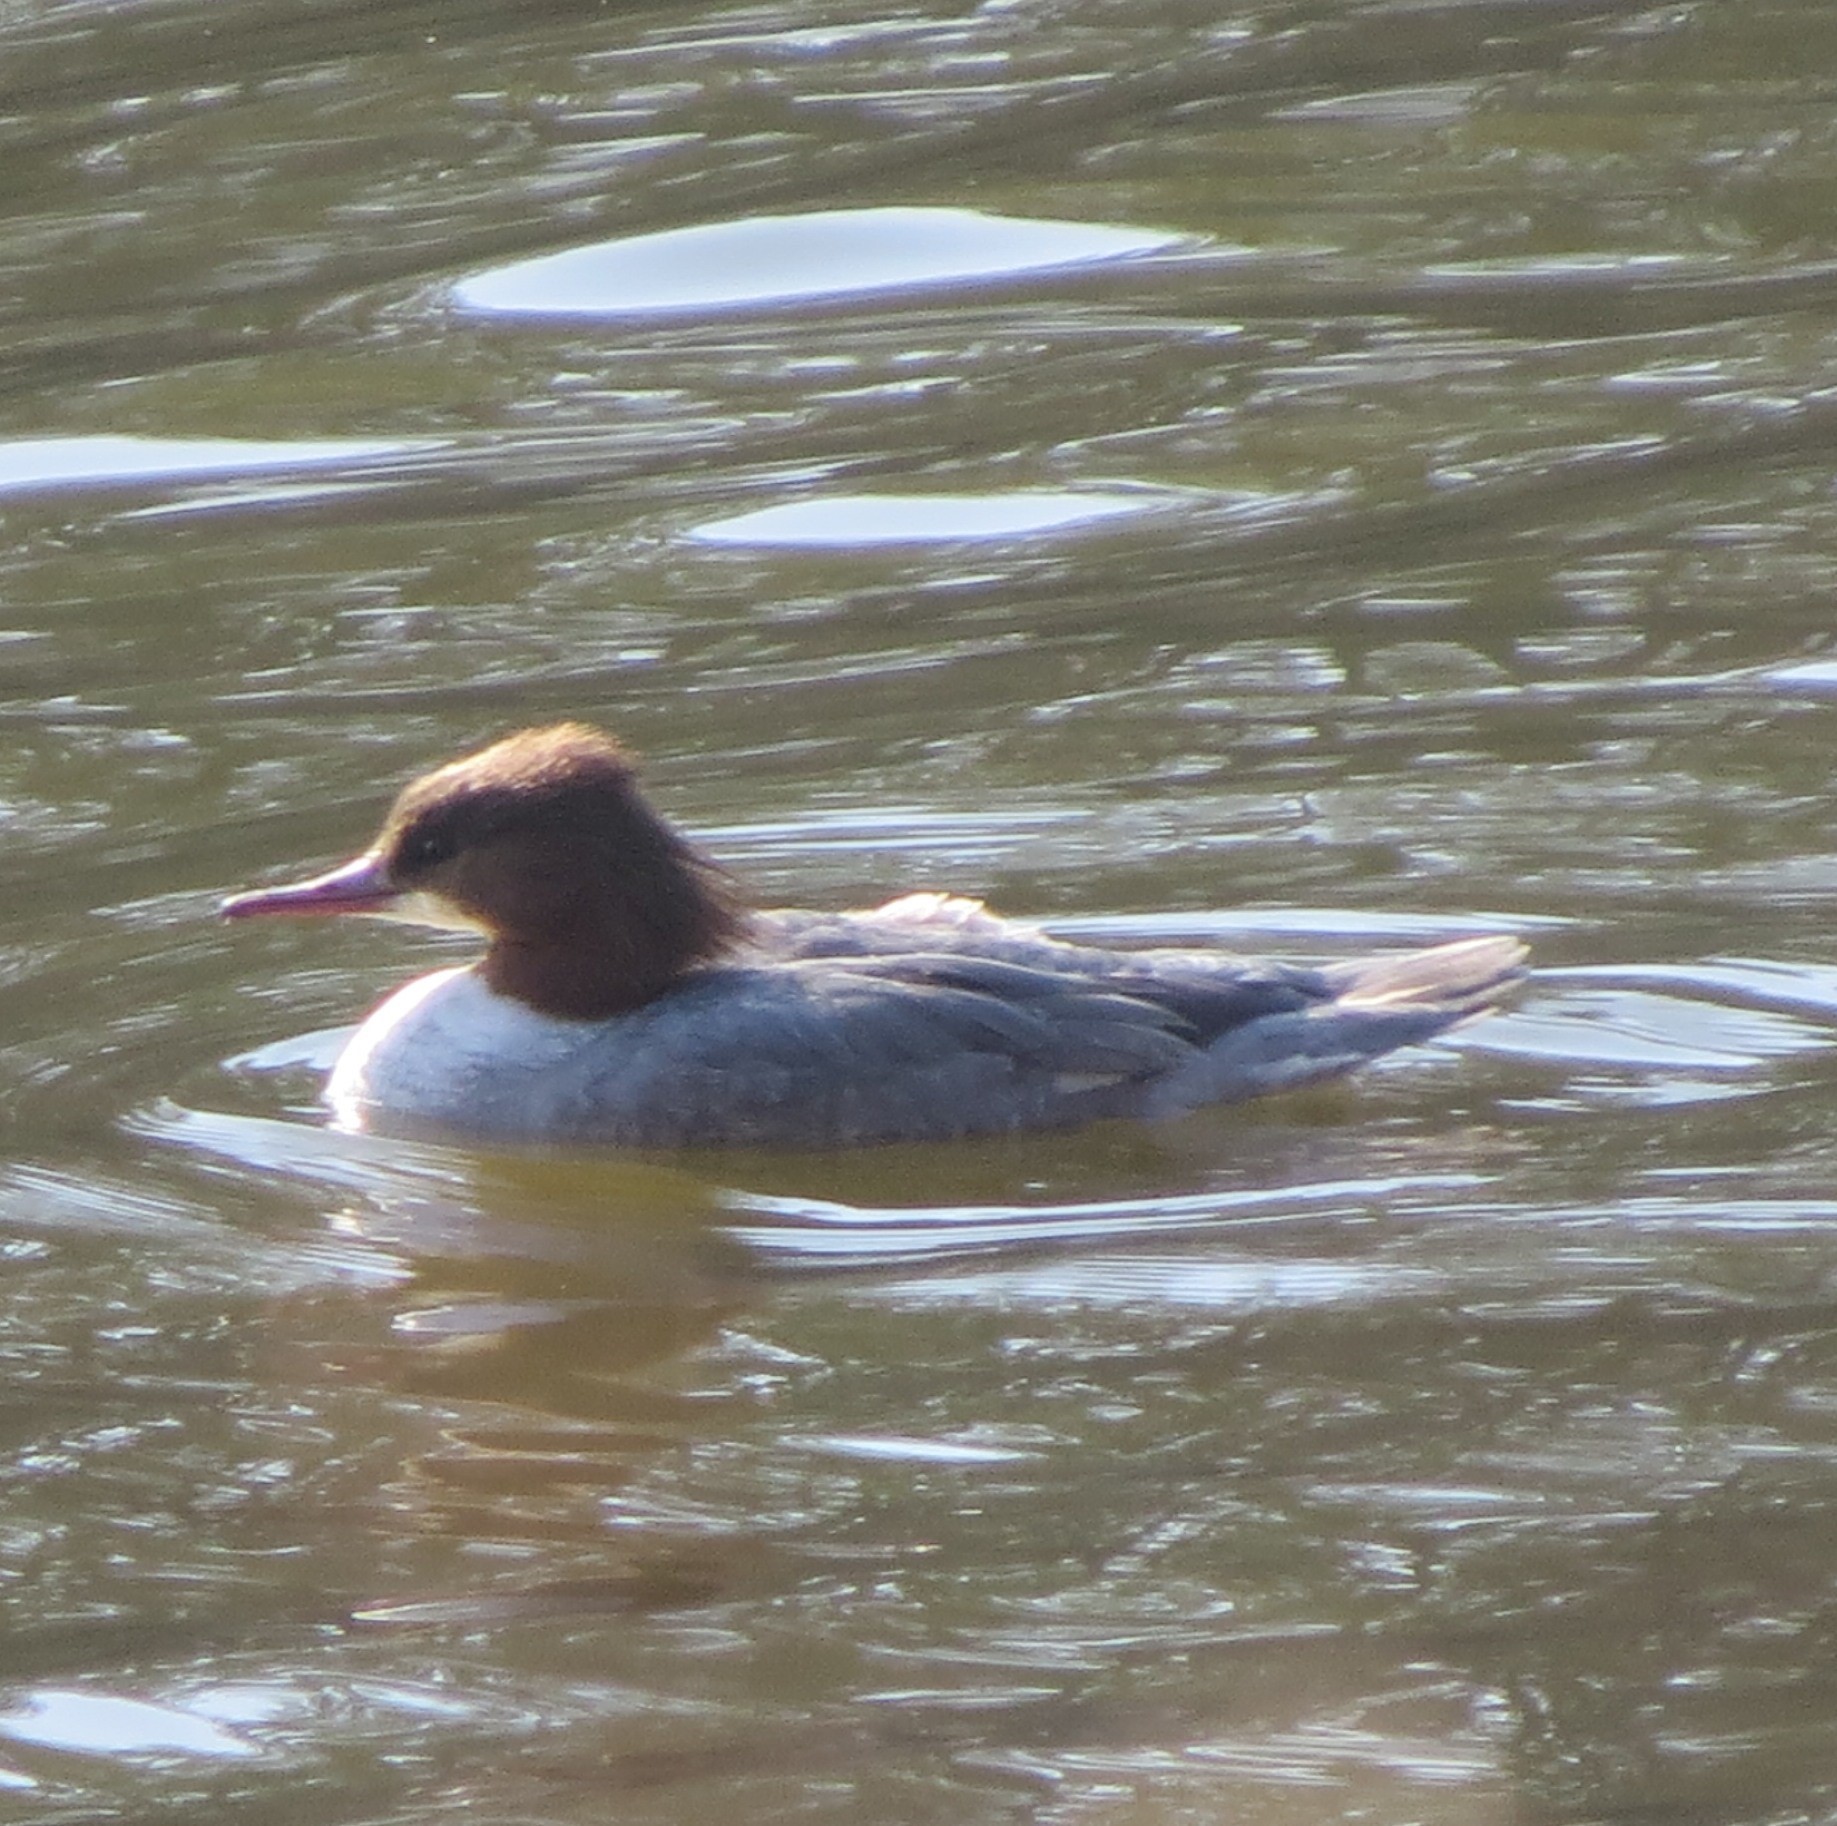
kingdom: Animalia
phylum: Chordata
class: Aves
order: Anseriformes
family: Anatidae
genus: Mergus
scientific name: Mergus merganser
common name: Common merganser
